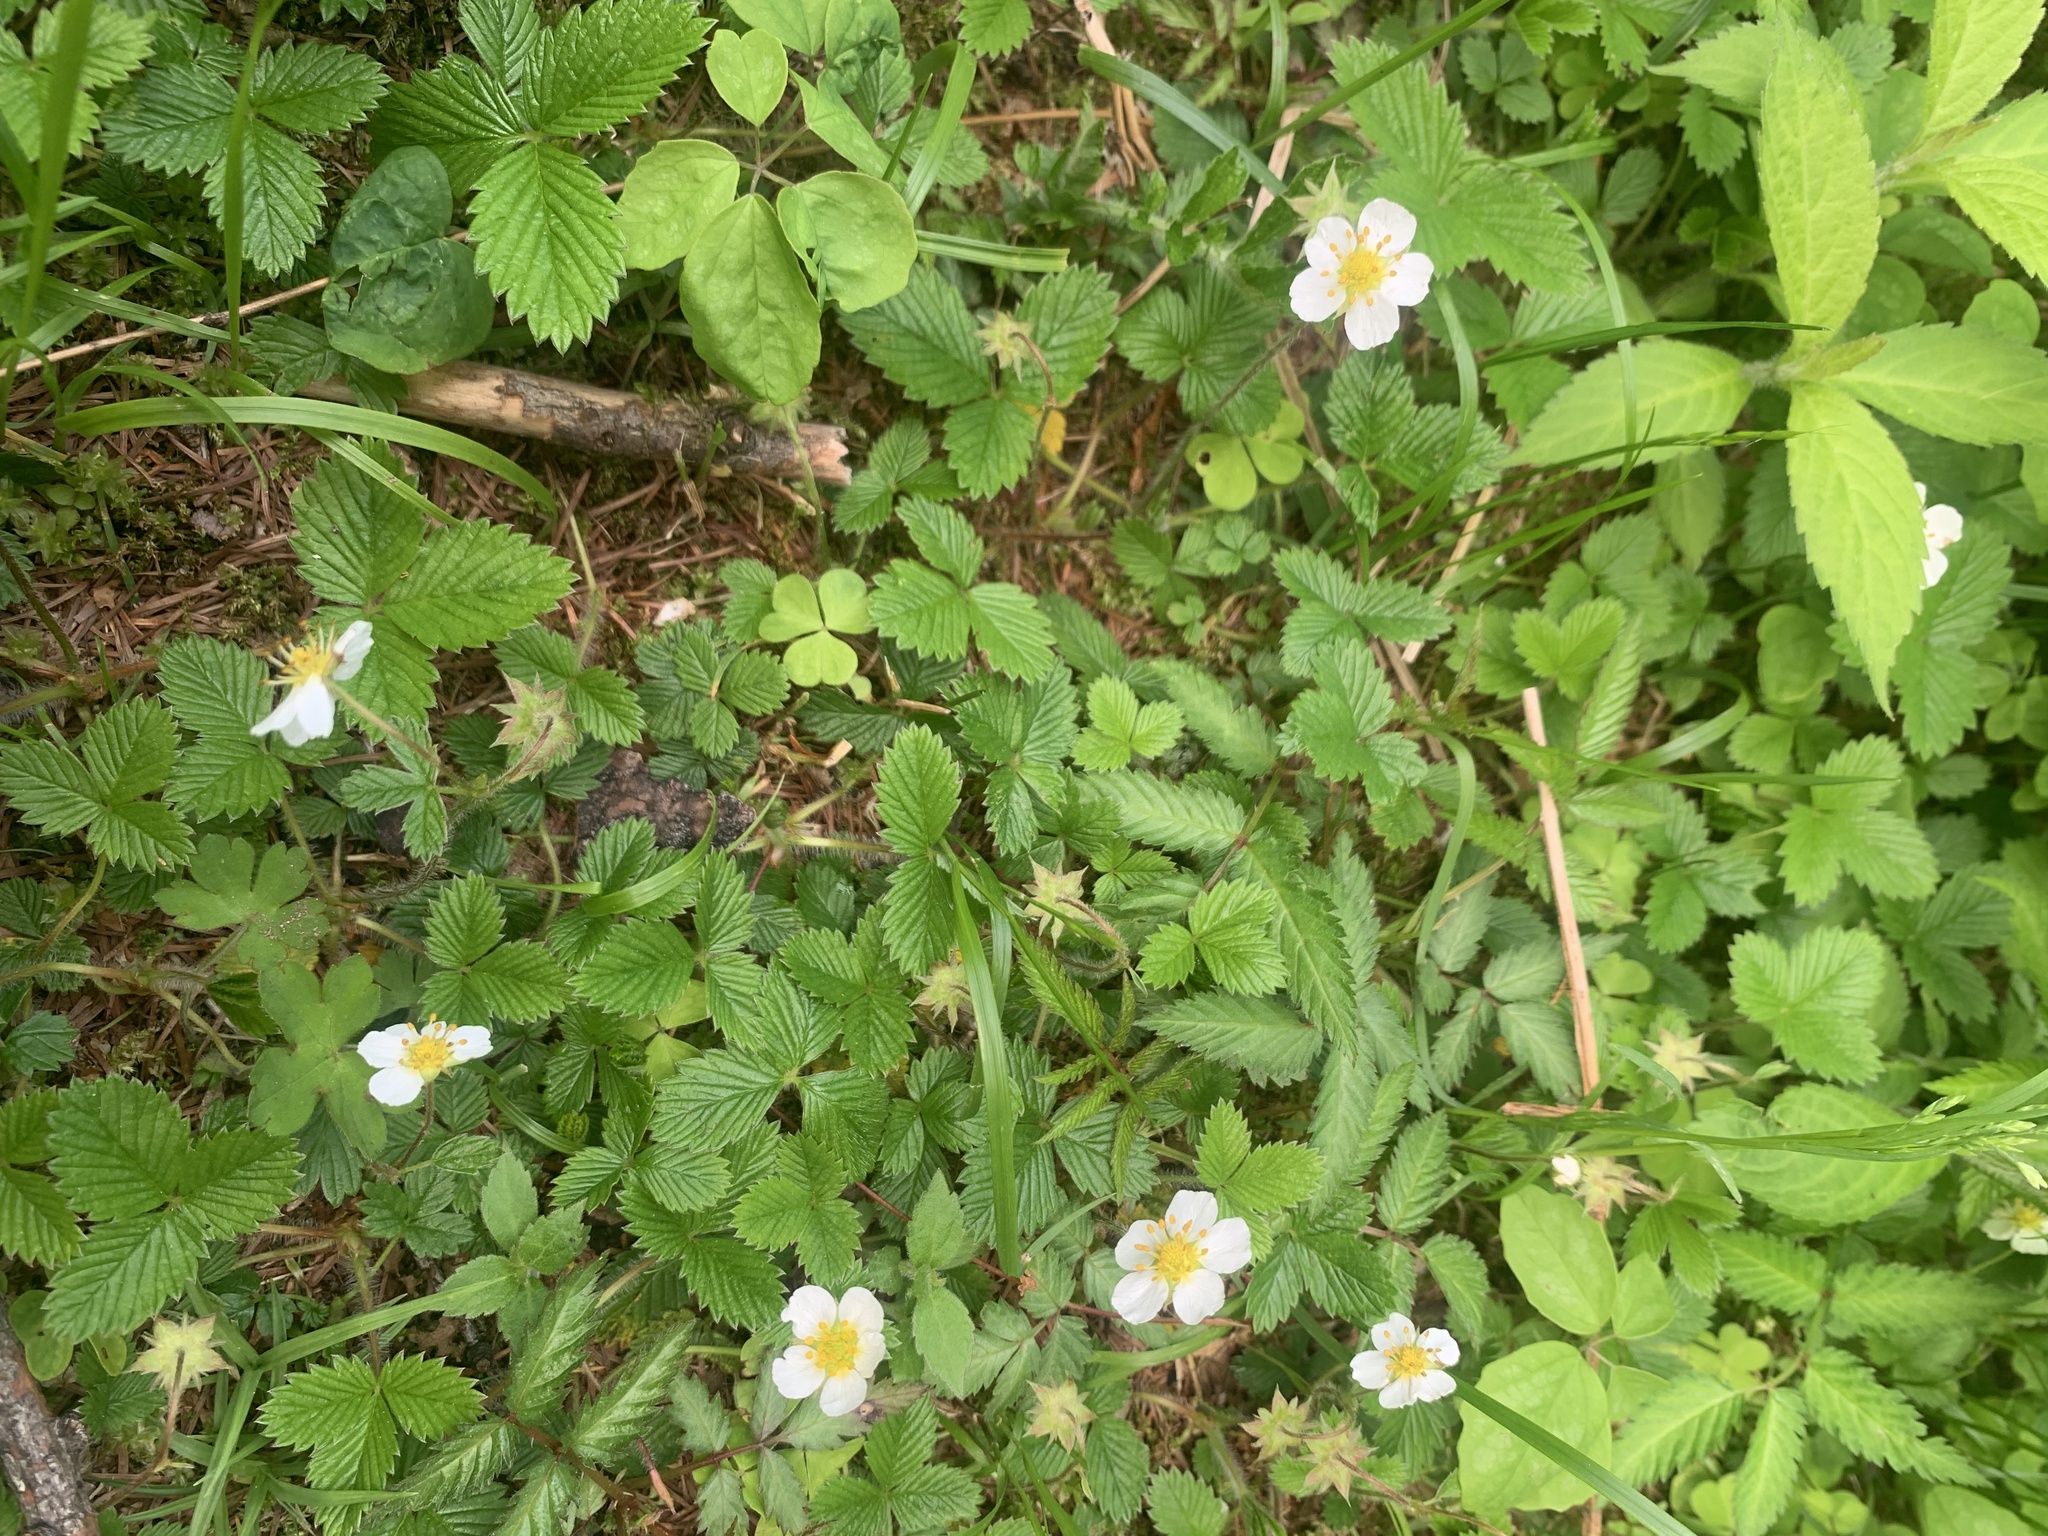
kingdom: Plantae
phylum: Tracheophyta
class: Magnoliopsida
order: Rosales
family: Rosaceae
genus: Fragaria
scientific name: Fragaria nipponica
